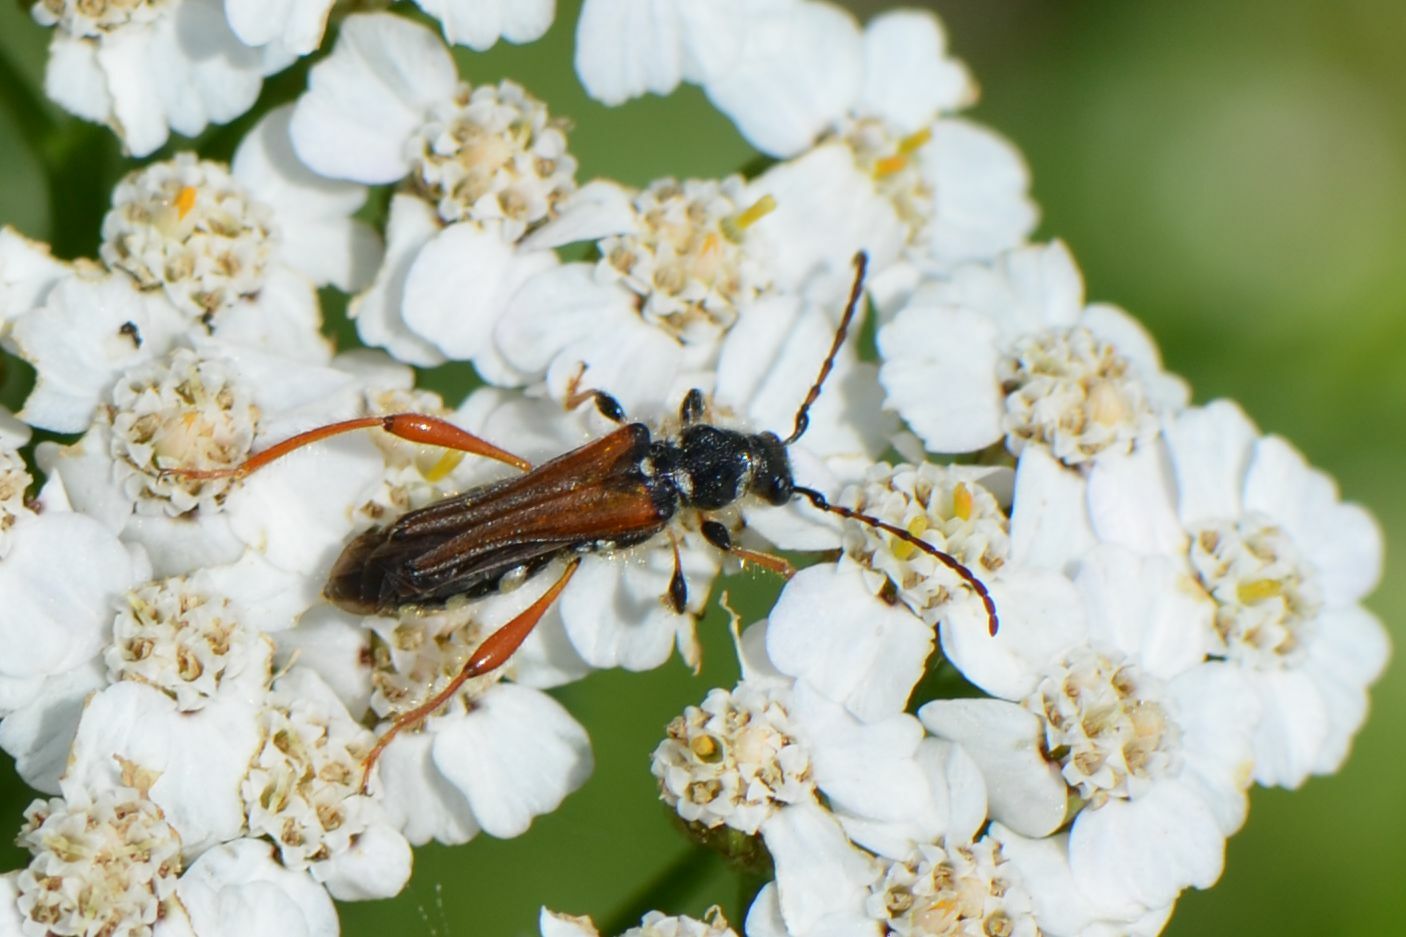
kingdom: Animalia
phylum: Arthropoda
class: Insecta
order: Coleoptera
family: Cerambycidae
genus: Stenopterus
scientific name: Stenopterus rufus
